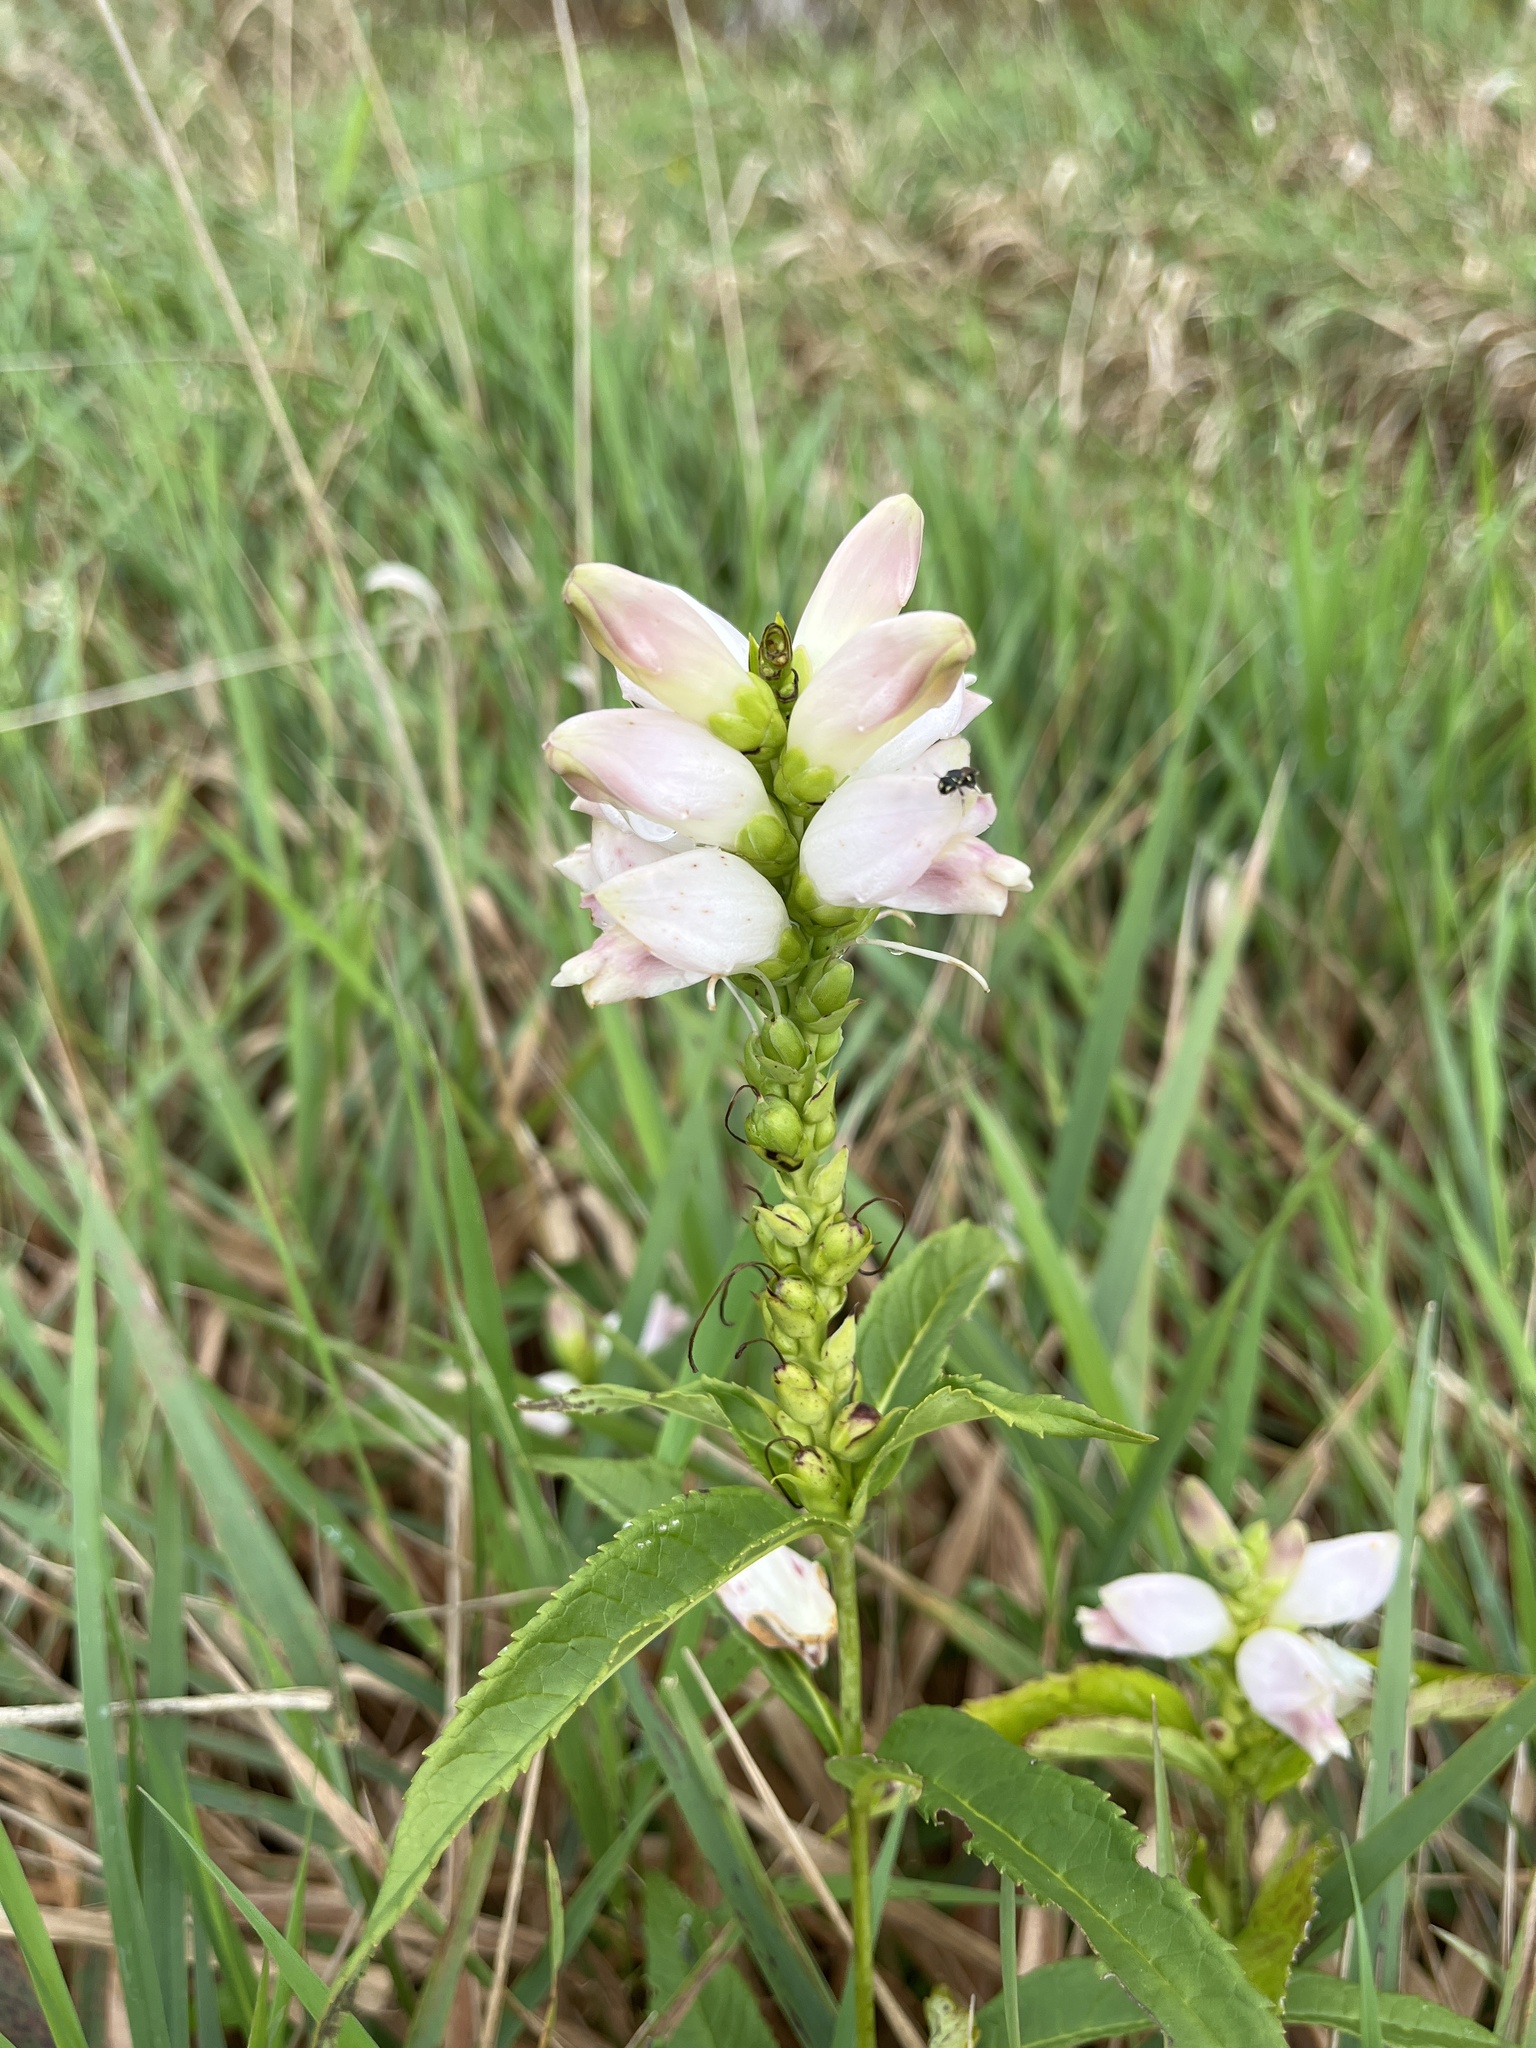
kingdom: Plantae
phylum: Tracheophyta
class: Magnoliopsida
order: Lamiales
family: Plantaginaceae
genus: Chelone
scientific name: Chelone glabra
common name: Snakehead
